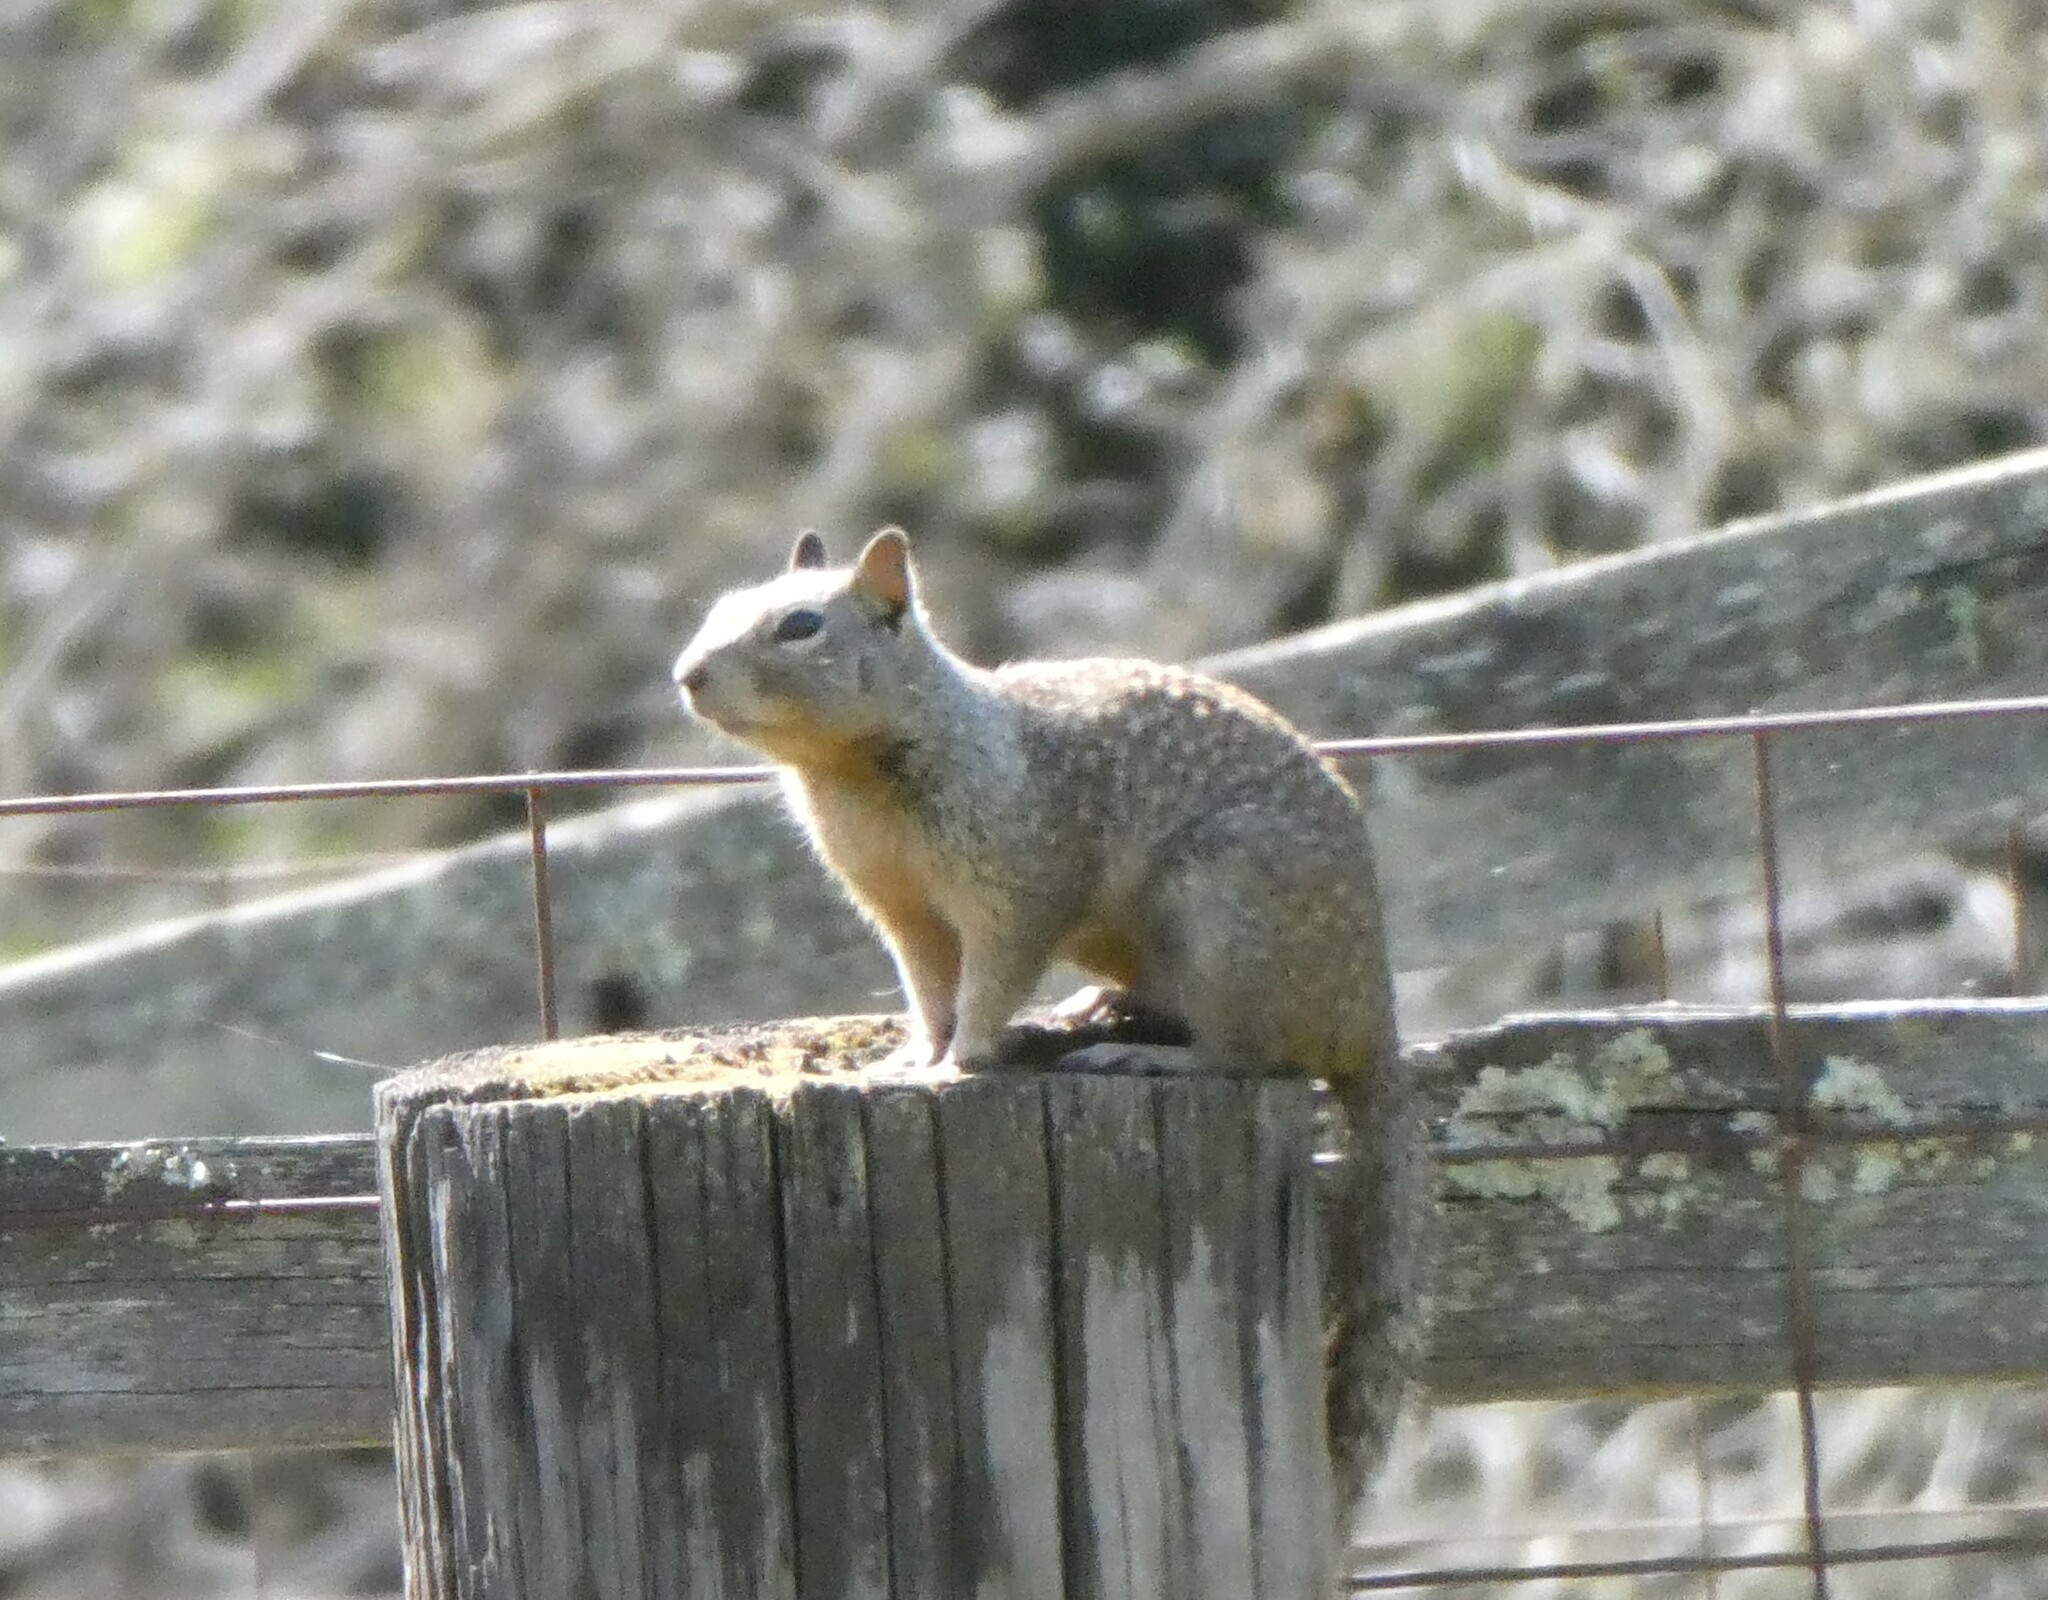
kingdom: Animalia
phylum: Chordata
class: Mammalia
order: Rodentia
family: Sciuridae
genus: Otospermophilus
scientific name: Otospermophilus beecheyi
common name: California ground squirrel
